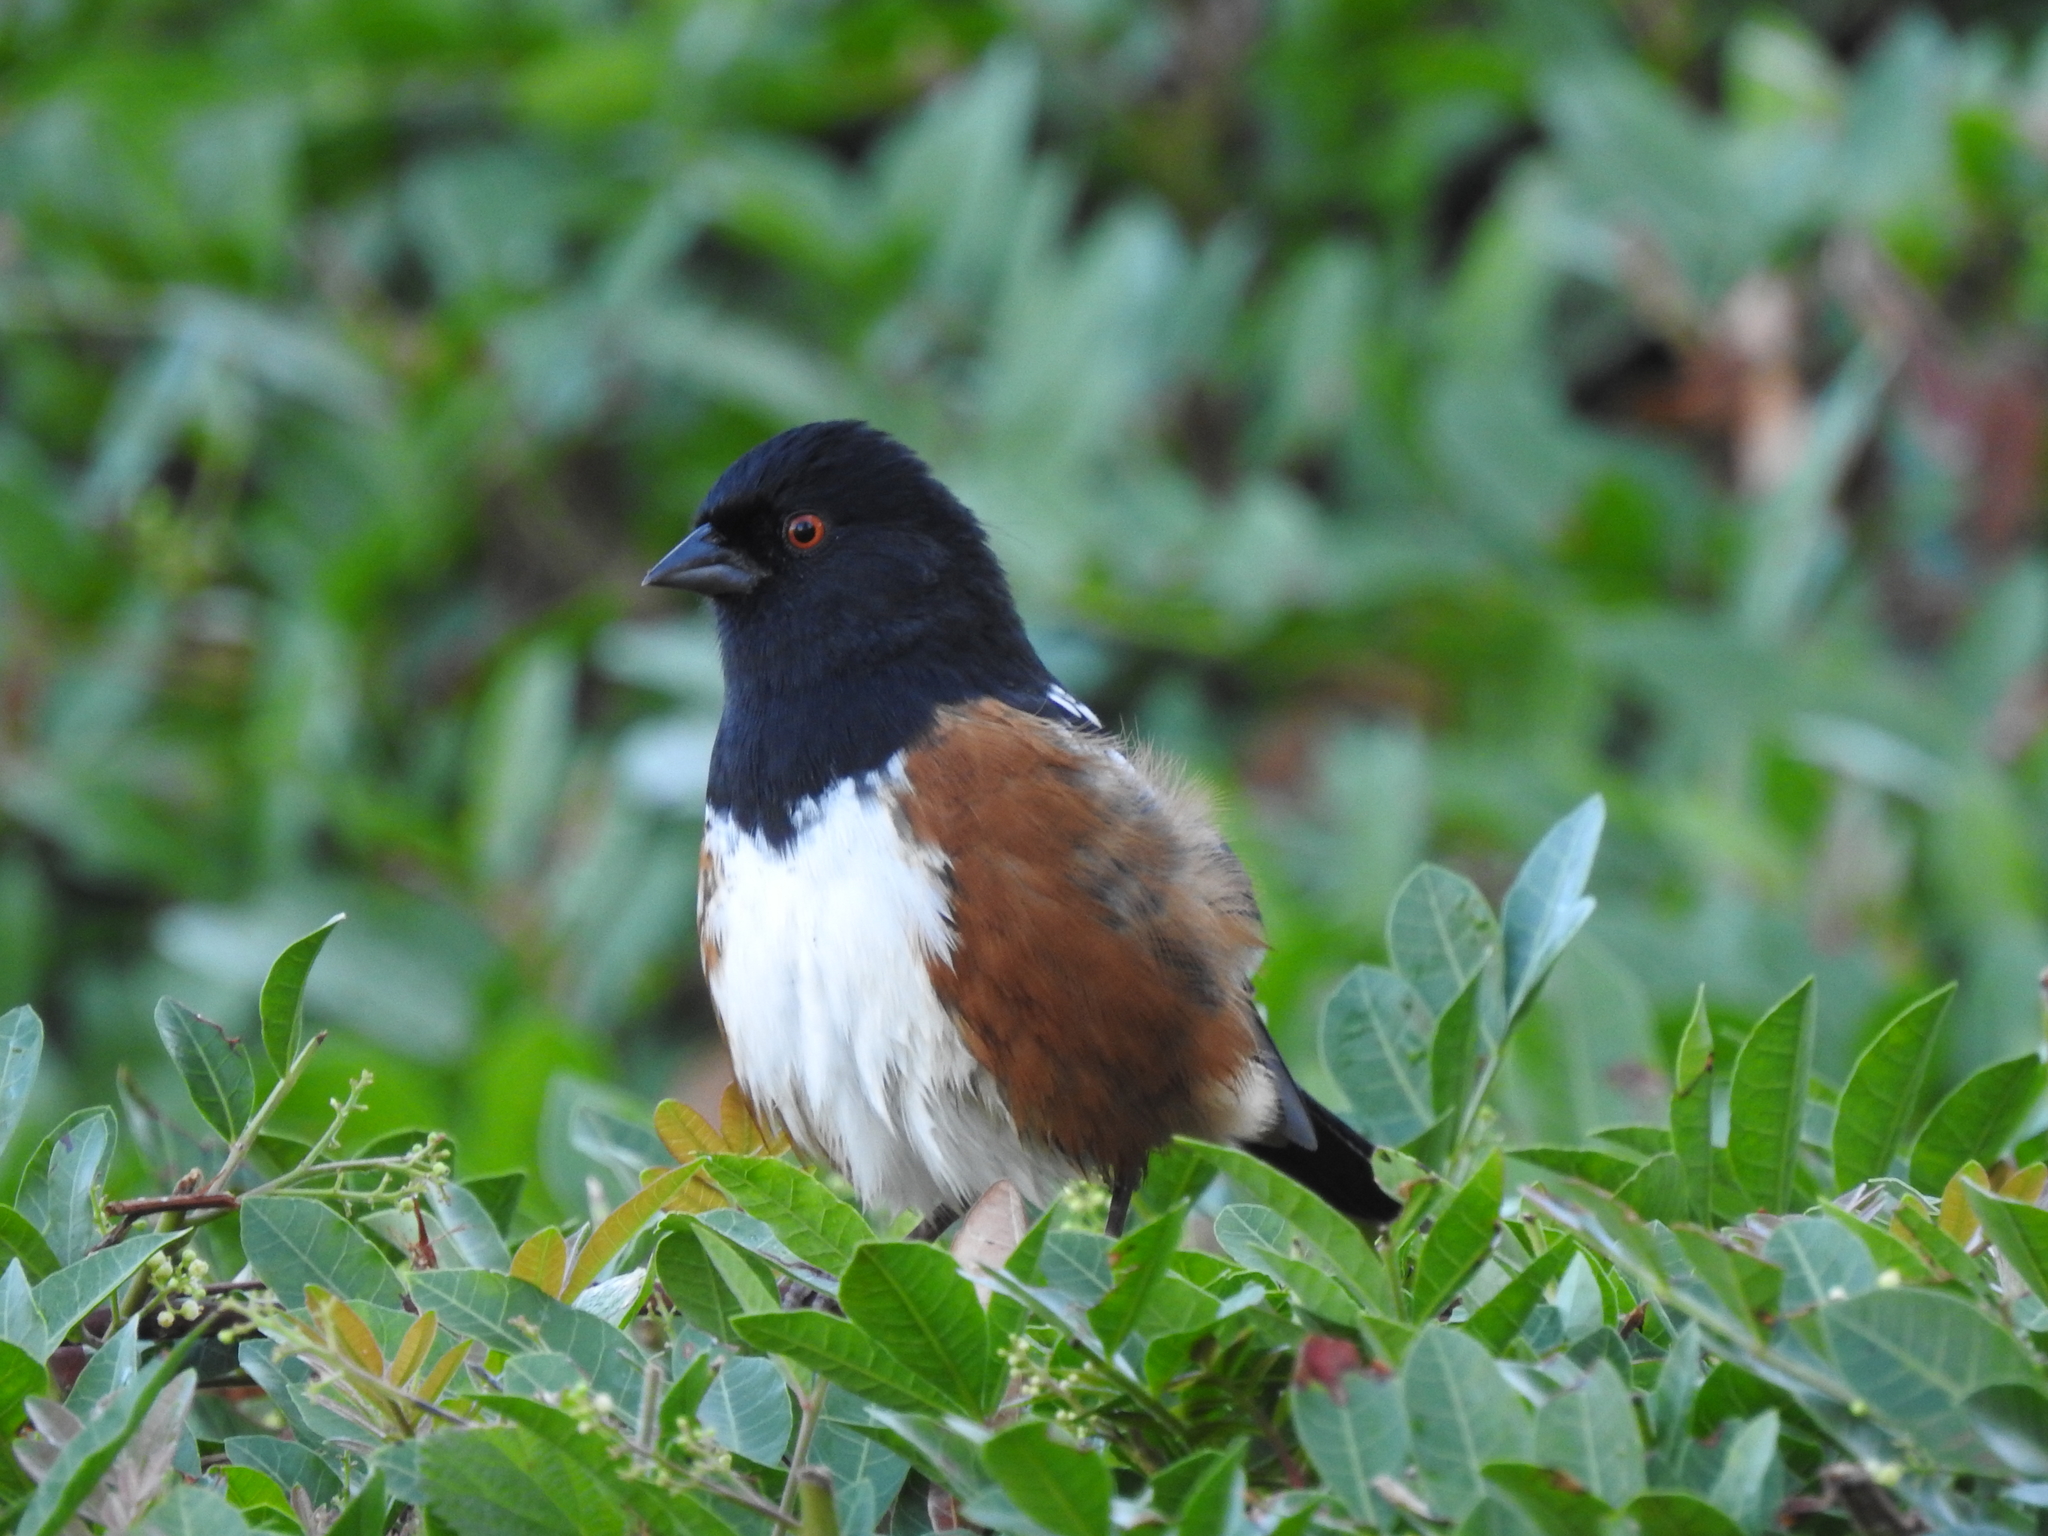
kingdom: Animalia
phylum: Chordata
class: Aves
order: Passeriformes
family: Passerellidae
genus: Pipilo
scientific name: Pipilo maculatus
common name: Spotted towhee
